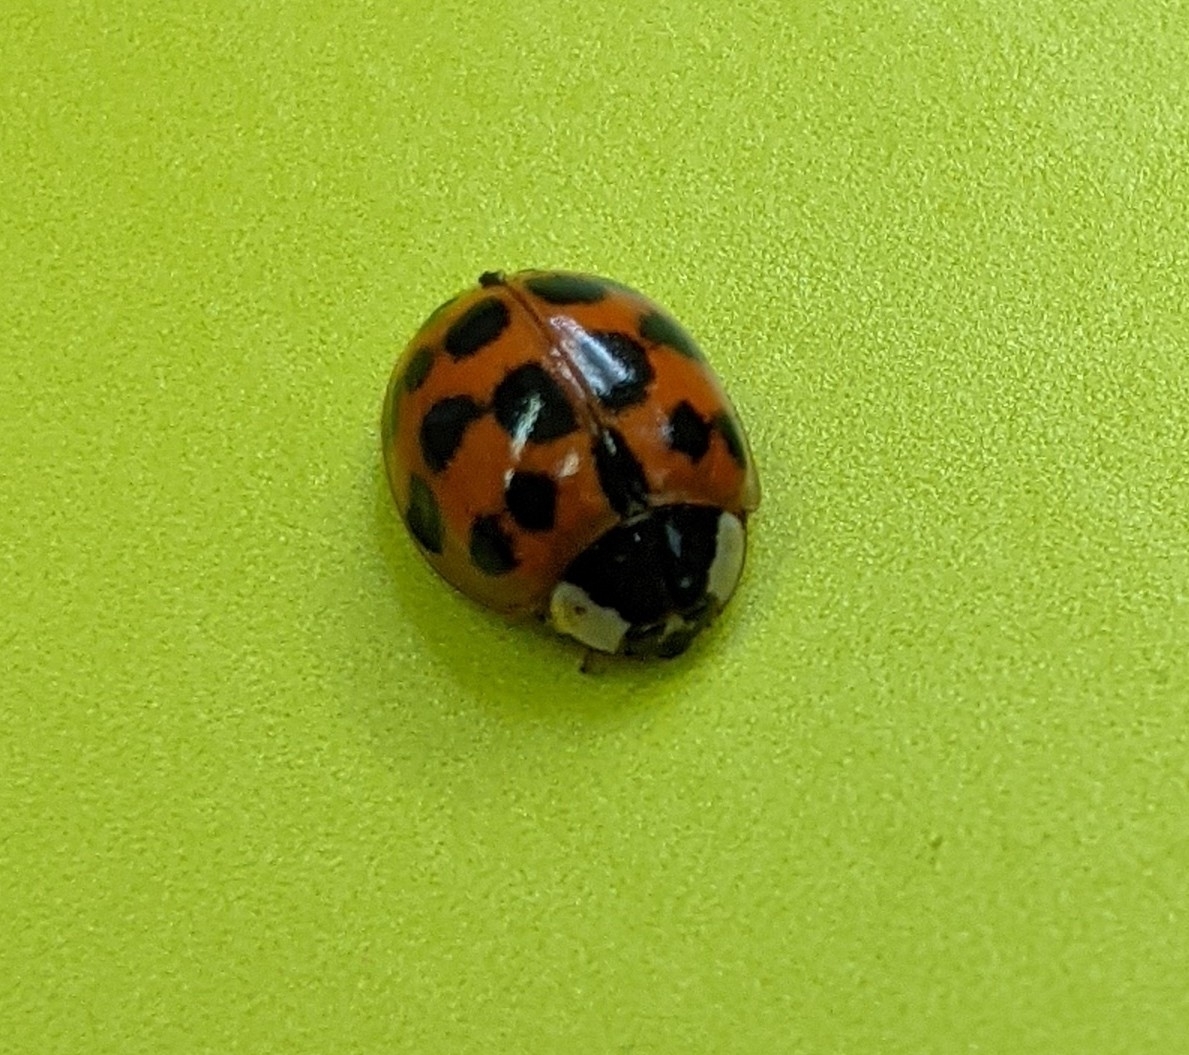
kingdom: Animalia
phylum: Arthropoda
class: Insecta
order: Coleoptera
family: Coccinellidae
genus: Harmonia
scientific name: Harmonia axyridis
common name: Harlequin ladybird
